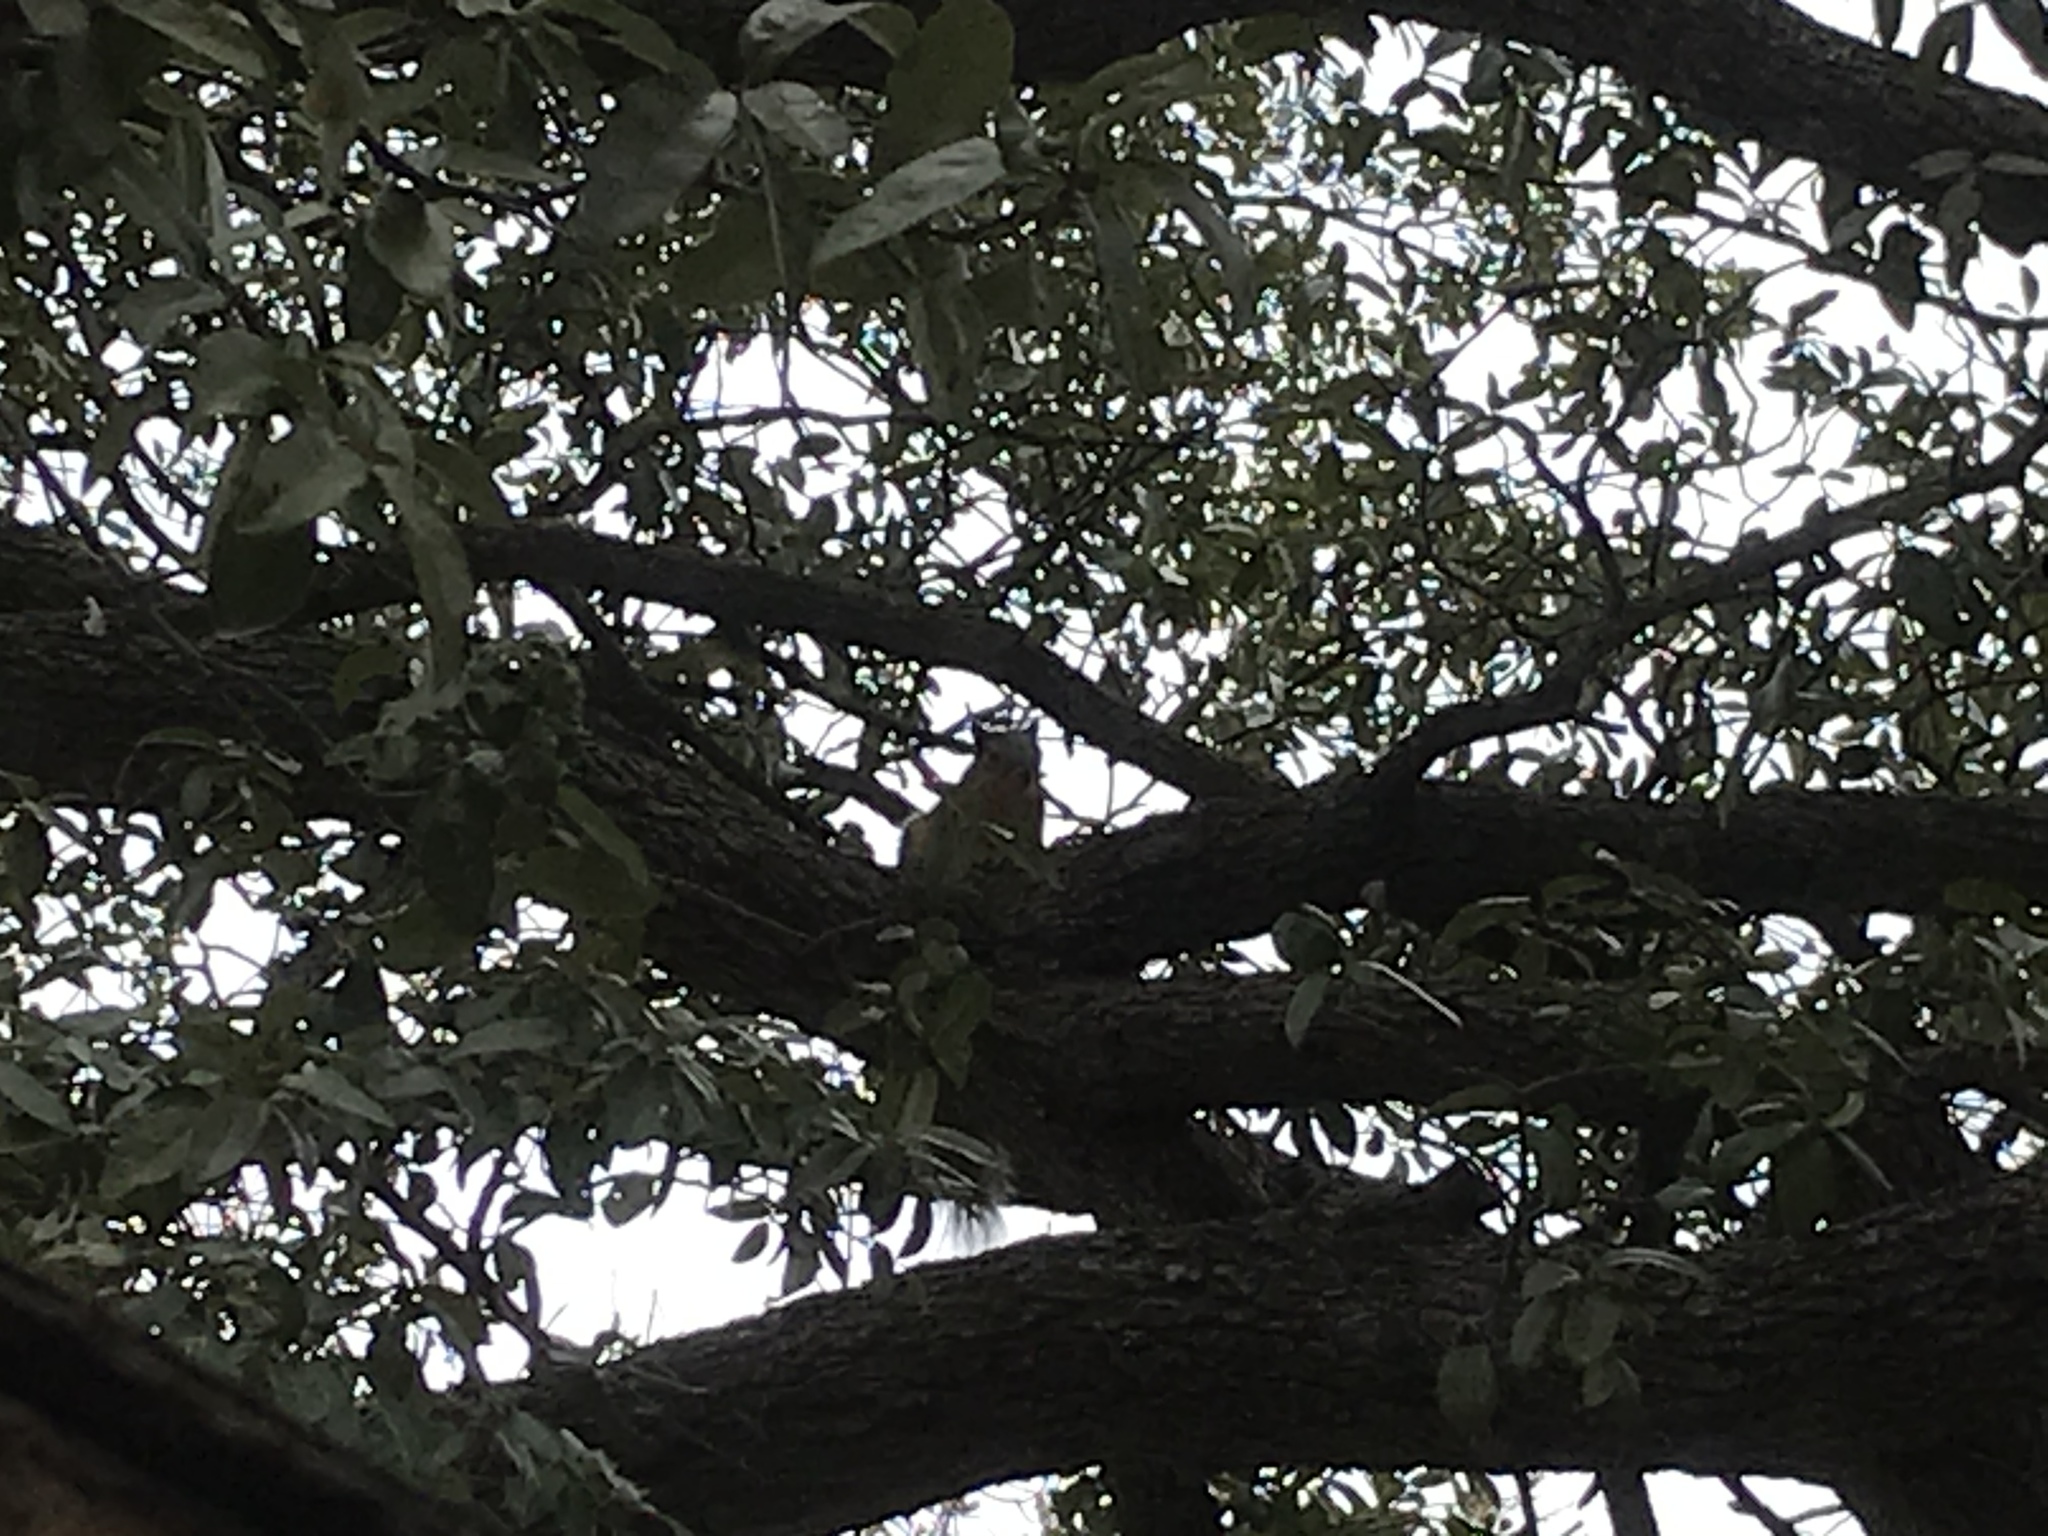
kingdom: Animalia
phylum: Chordata
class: Mammalia
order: Rodentia
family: Sciuridae
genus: Sciurus
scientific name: Sciurus niger
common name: Fox squirrel
